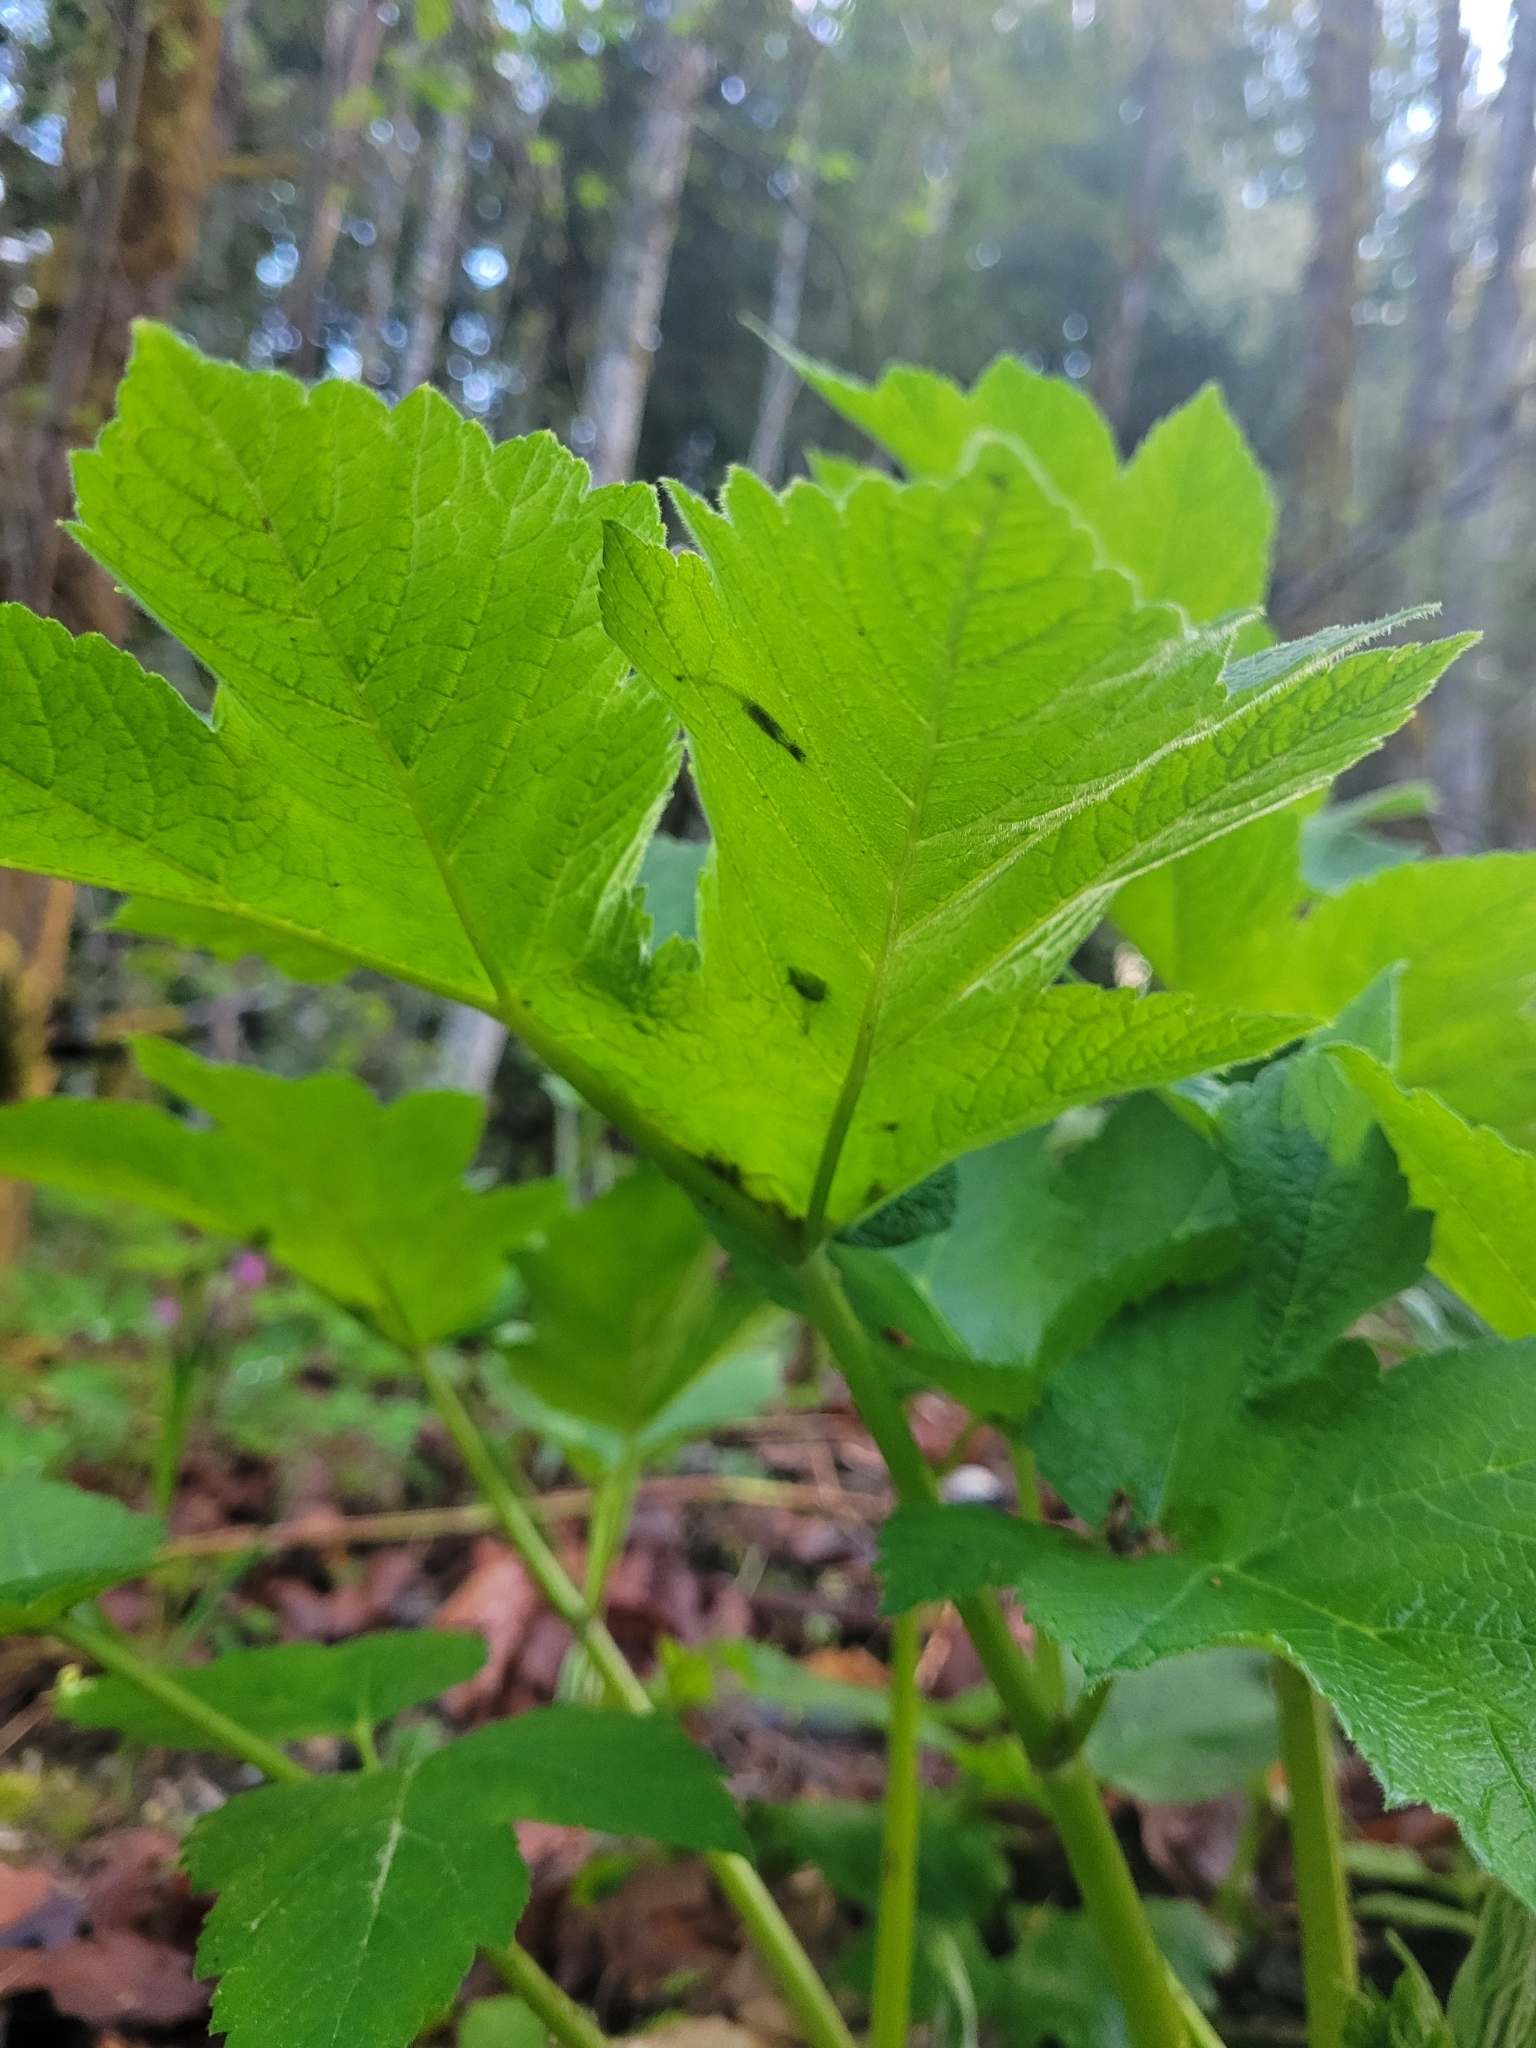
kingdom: Plantae
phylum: Tracheophyta
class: Magnoliopsida
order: Apiales
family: Apiaceae
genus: Heracleum
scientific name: Heracleum maximum
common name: American cow parsnip
